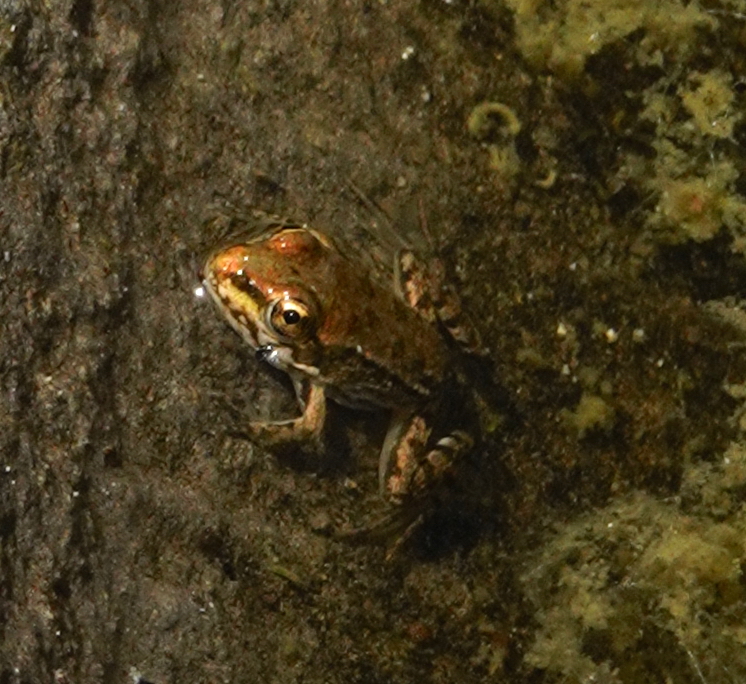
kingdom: Animalia
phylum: Chordata
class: Amphibia
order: Anura
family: Ranidae
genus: Pelophylax
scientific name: Pelophylax perezi
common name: Perez's frog
